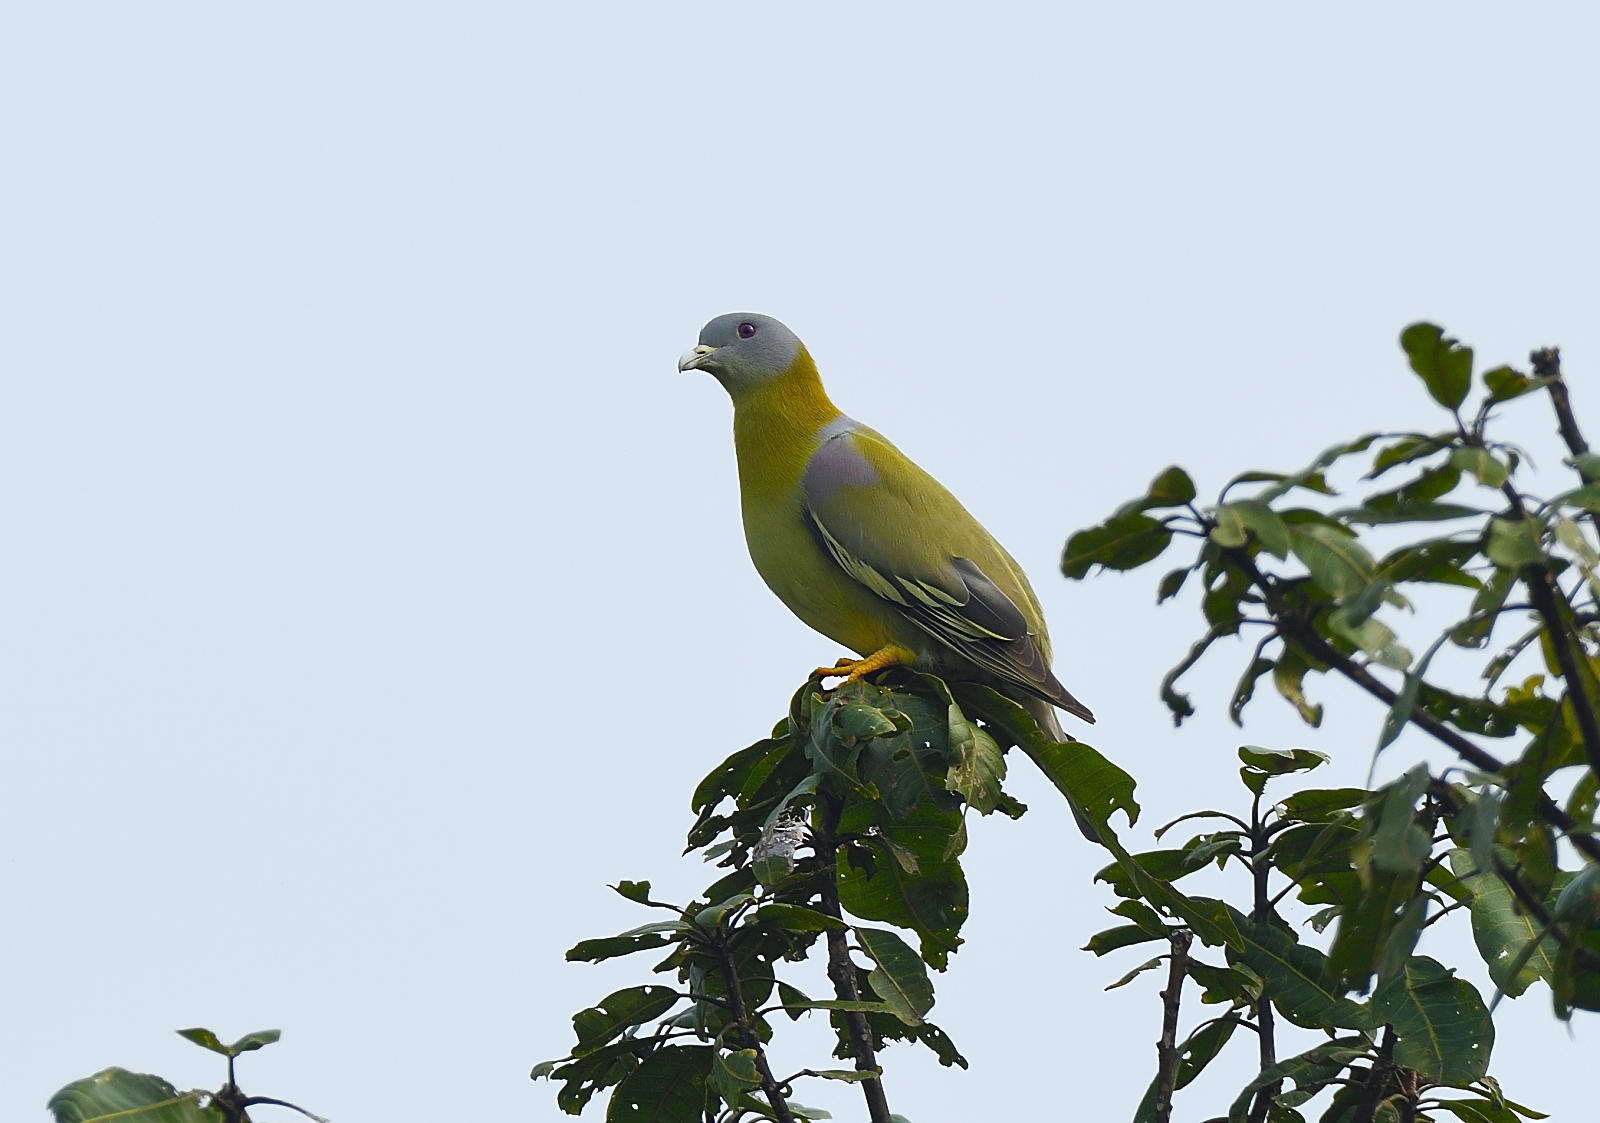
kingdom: Animalia
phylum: Chordata
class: Aves
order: Columbiformes
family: Columbidae
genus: Treron
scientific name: Treron phoenicopterus
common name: Yellow-footed green pigeon
